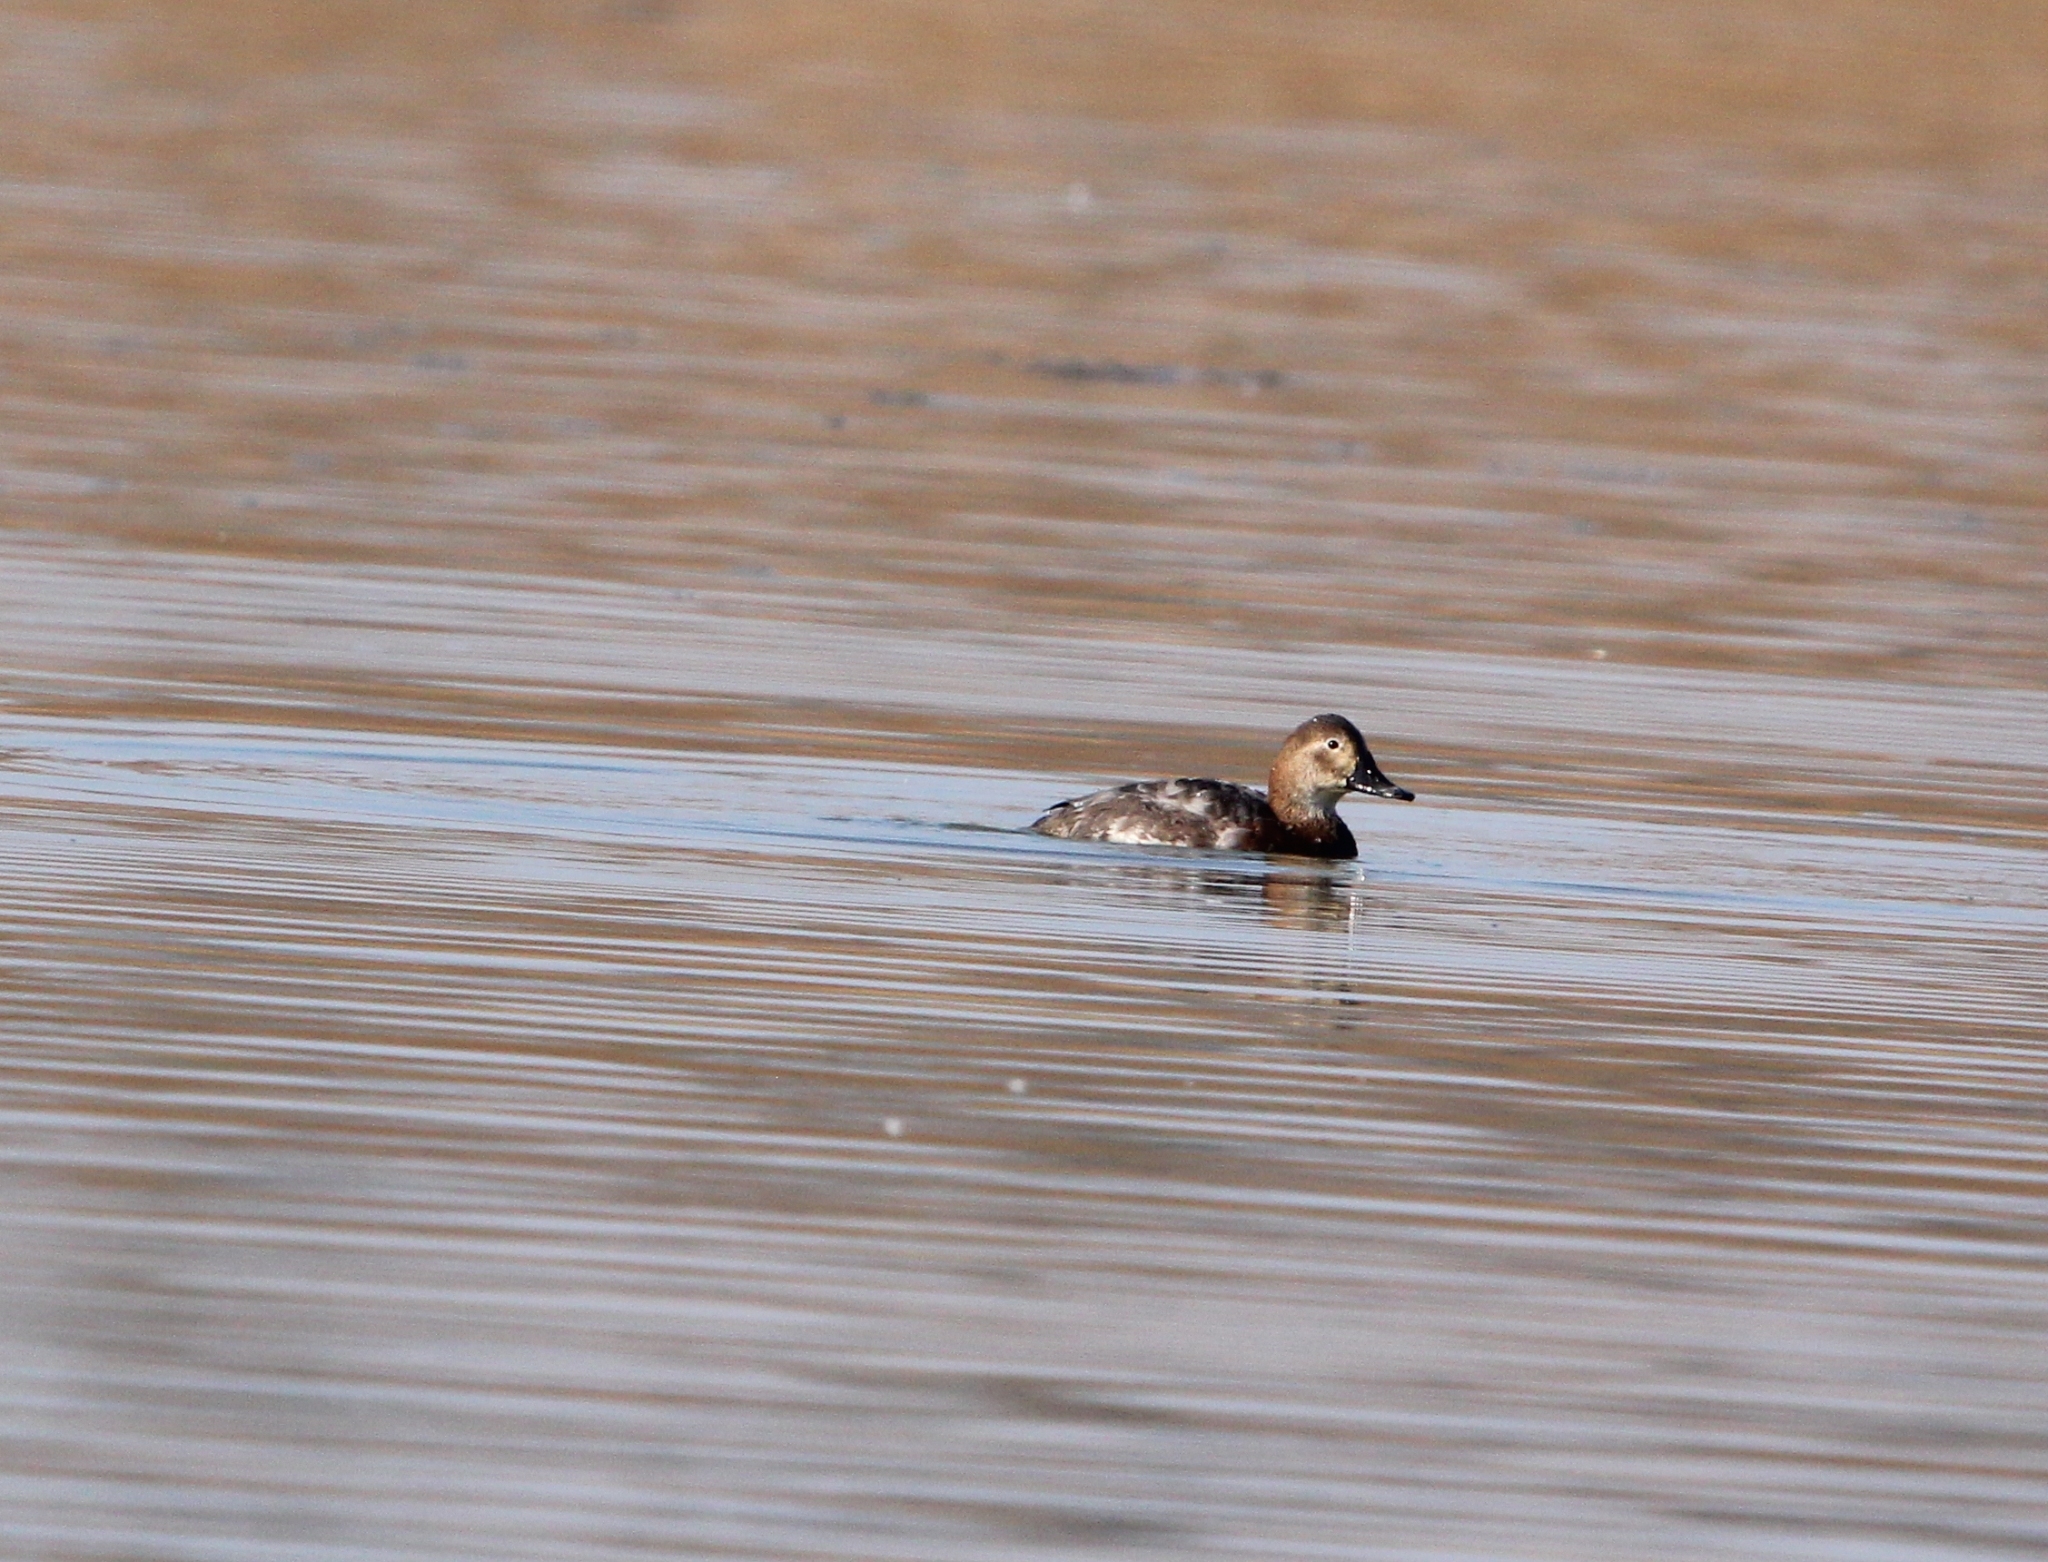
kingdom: Animalia
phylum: Chordata
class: Aves
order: Anseriformes
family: Anatidae
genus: Aythya
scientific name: Aythya ferina
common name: Common pochard
